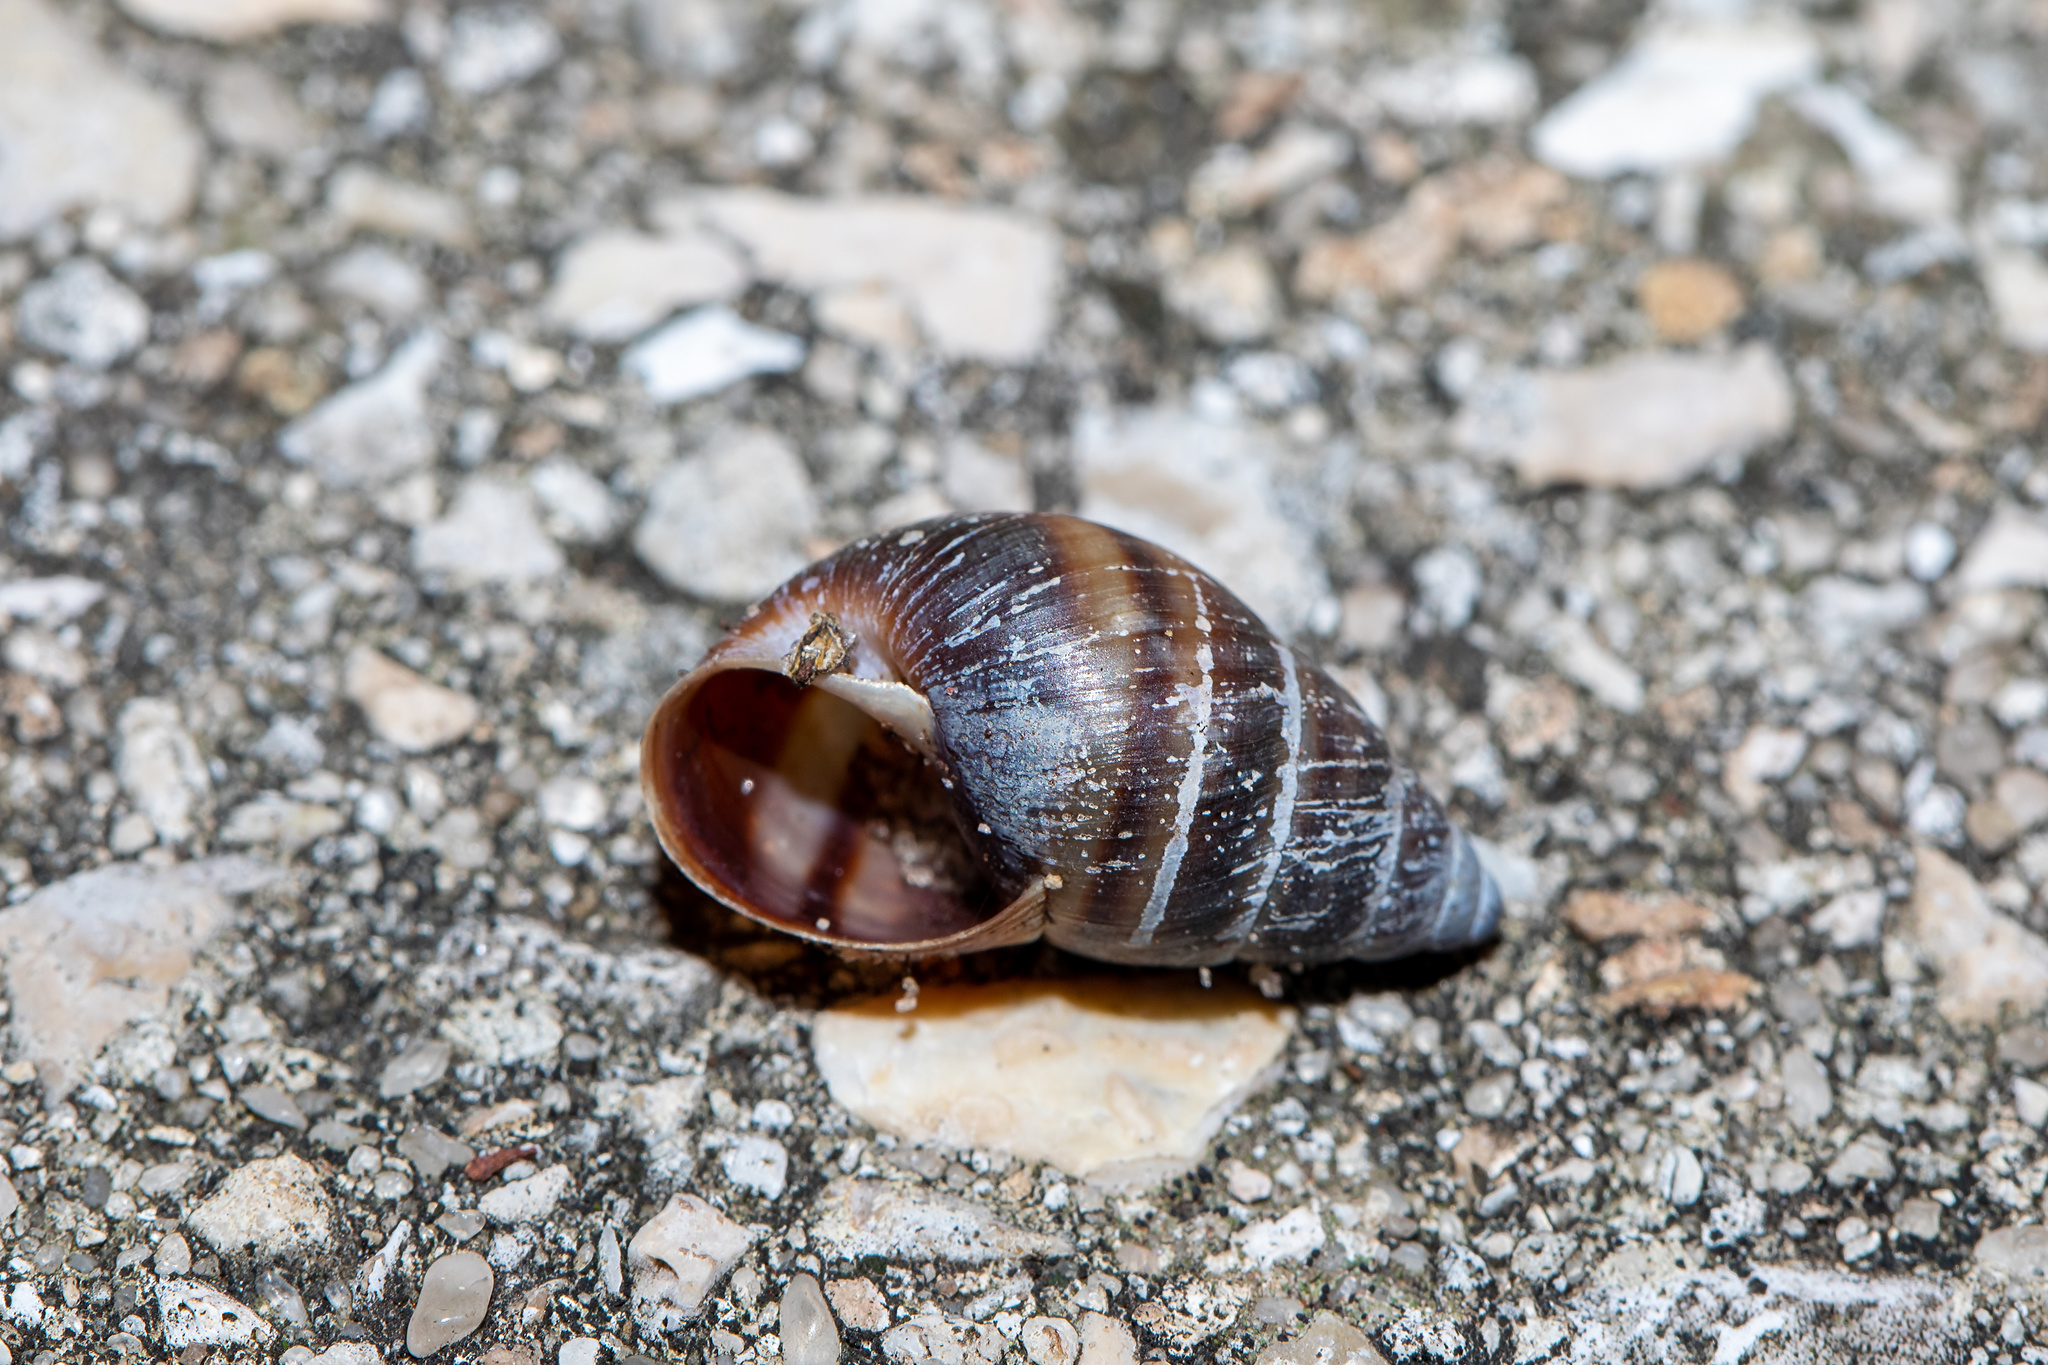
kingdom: Animalia
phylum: Mollusca
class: Gastropoda
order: Stylommatophora
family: Bulimulidae
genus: Bulimulus
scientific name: Bulimulus guadalupensis
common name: West indian bulimulus
